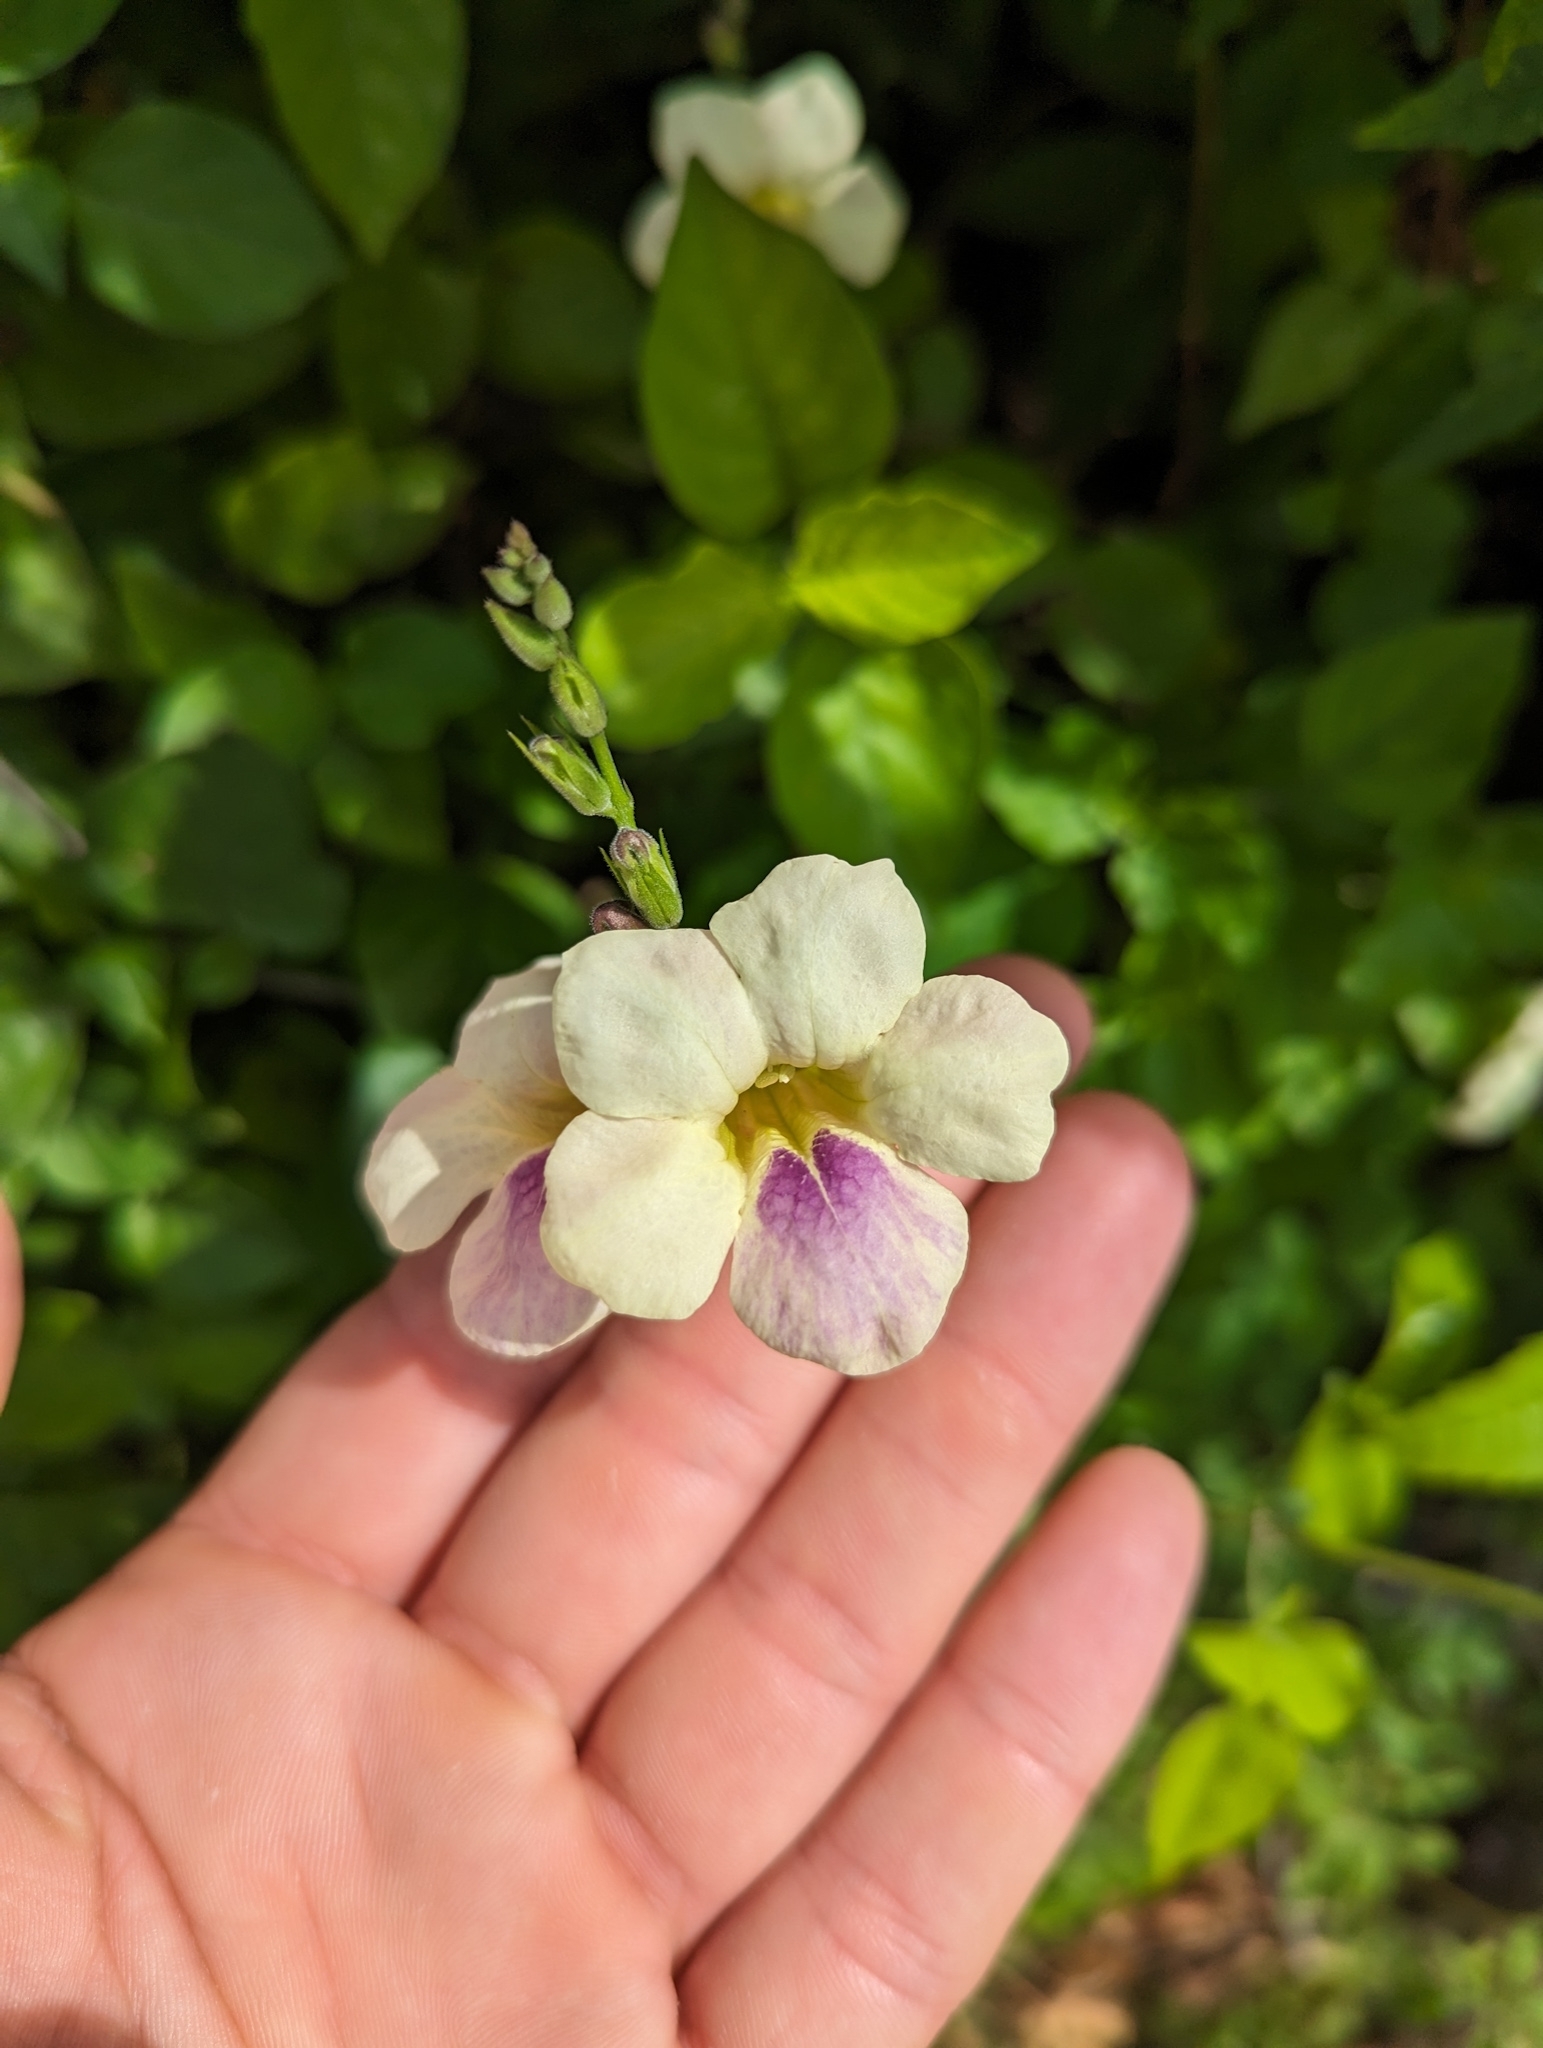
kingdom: Plantae
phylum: Tracheophyta
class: Magnoliopsida
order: Lamiales
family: Acanthaceae
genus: Asystasia
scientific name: Asystasia gangetica
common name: Chinese violet
